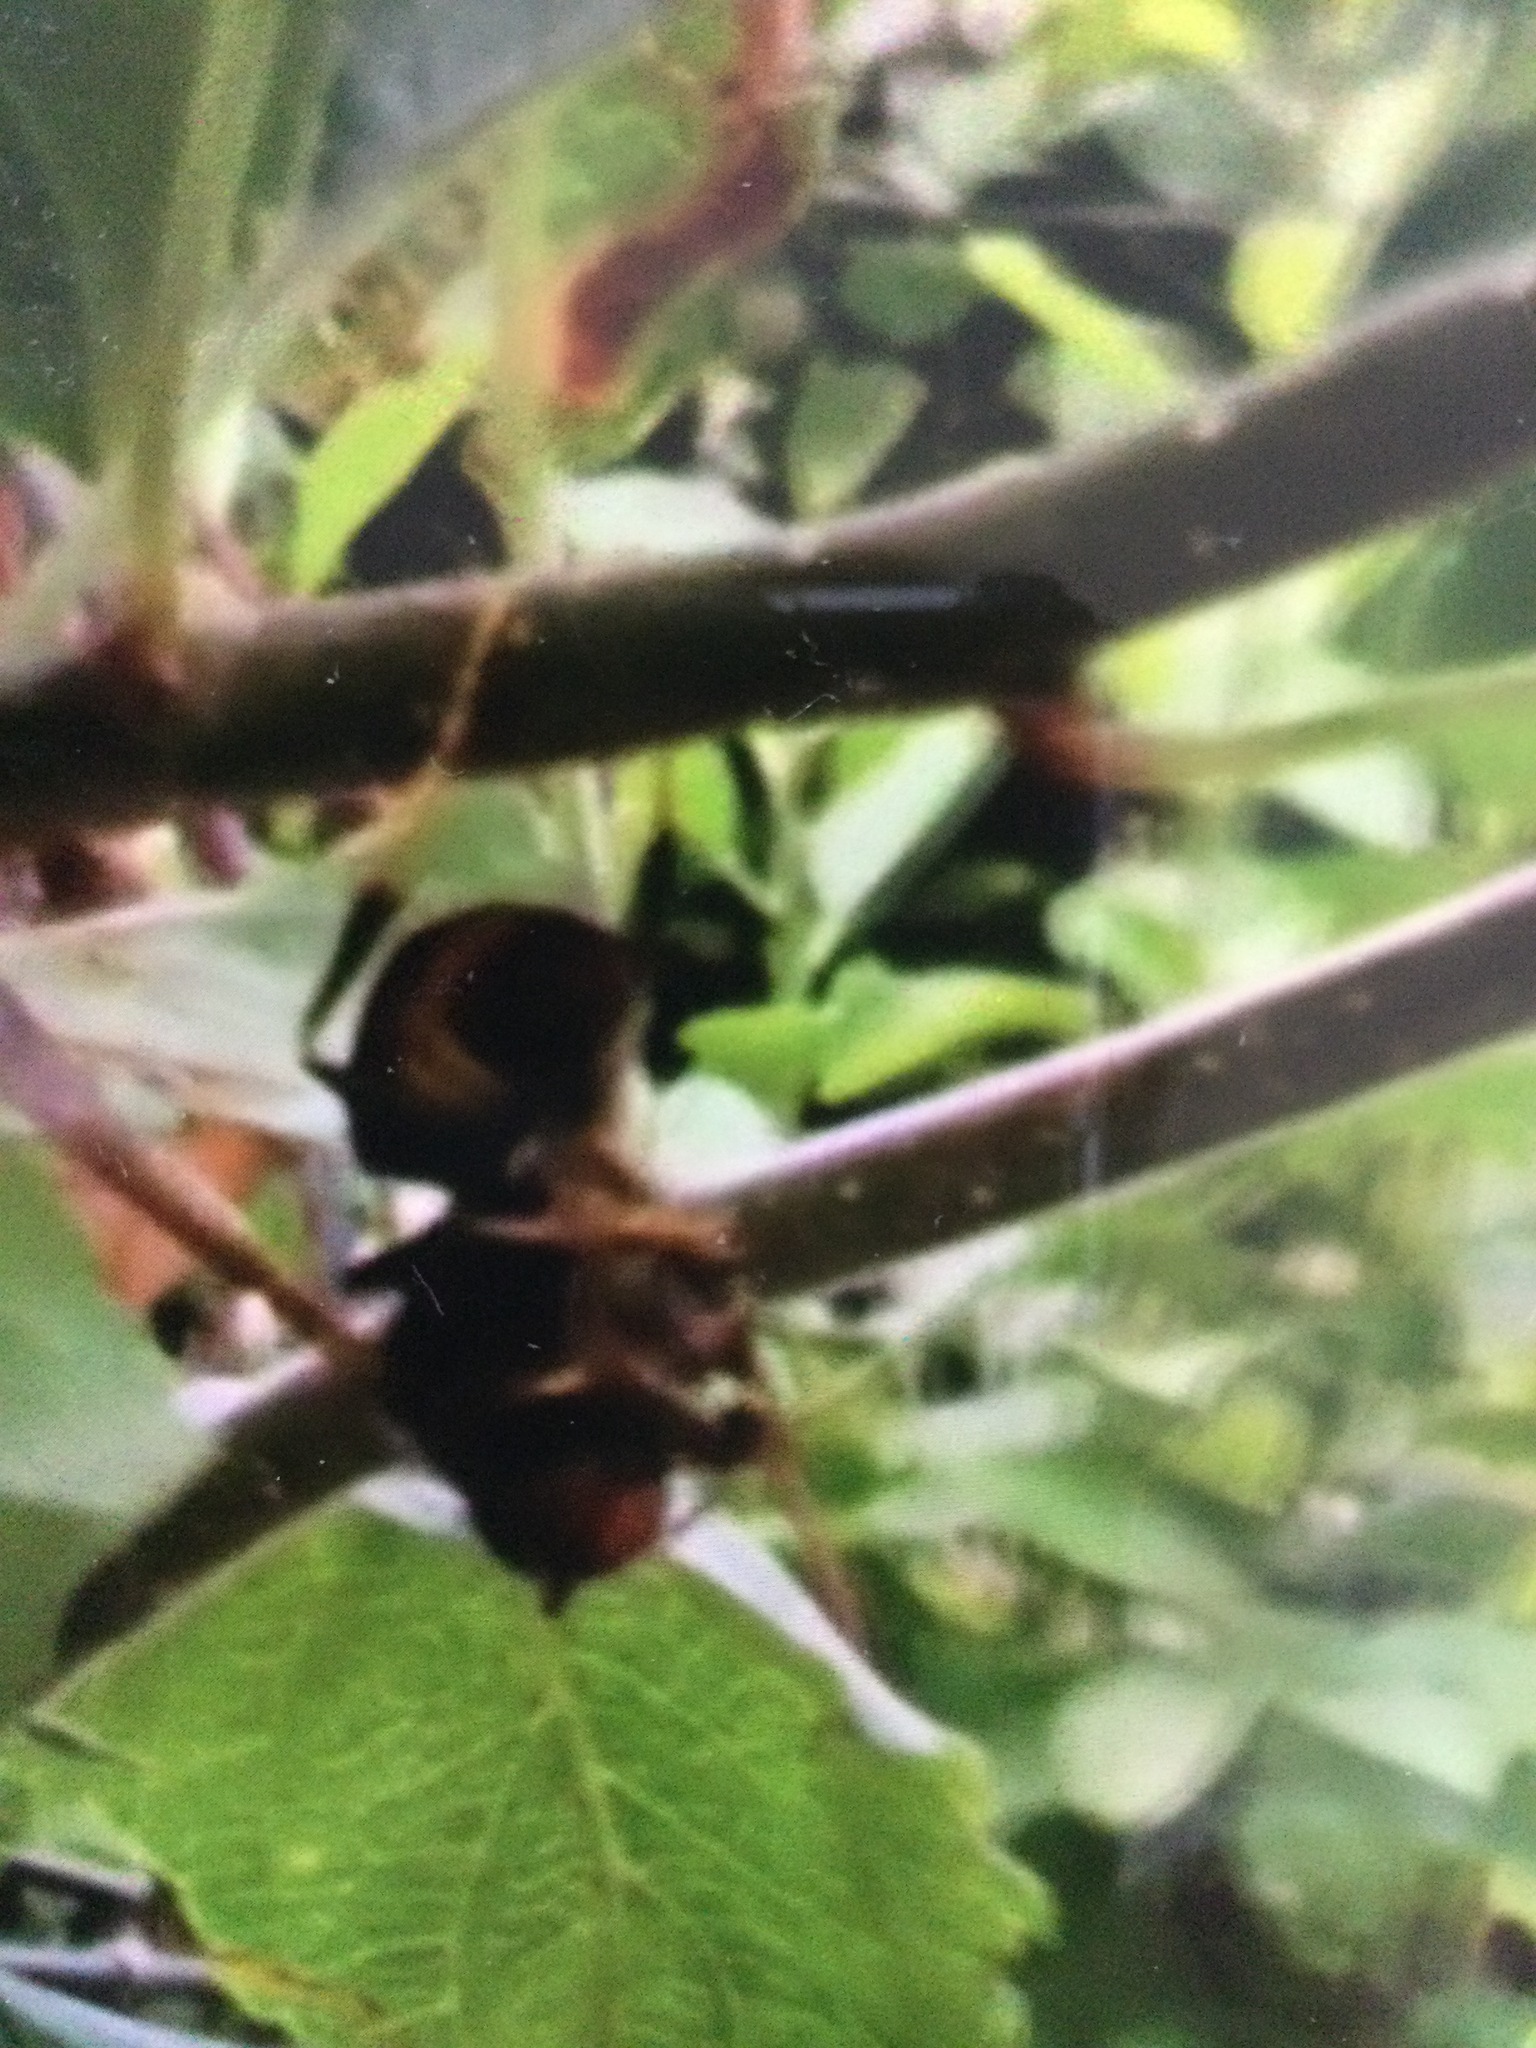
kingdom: Animalia
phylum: Arthropoda
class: Insecta
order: Hymenoptera
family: Vespidae
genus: Vespa
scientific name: Vespa velutina
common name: Asian hornet
